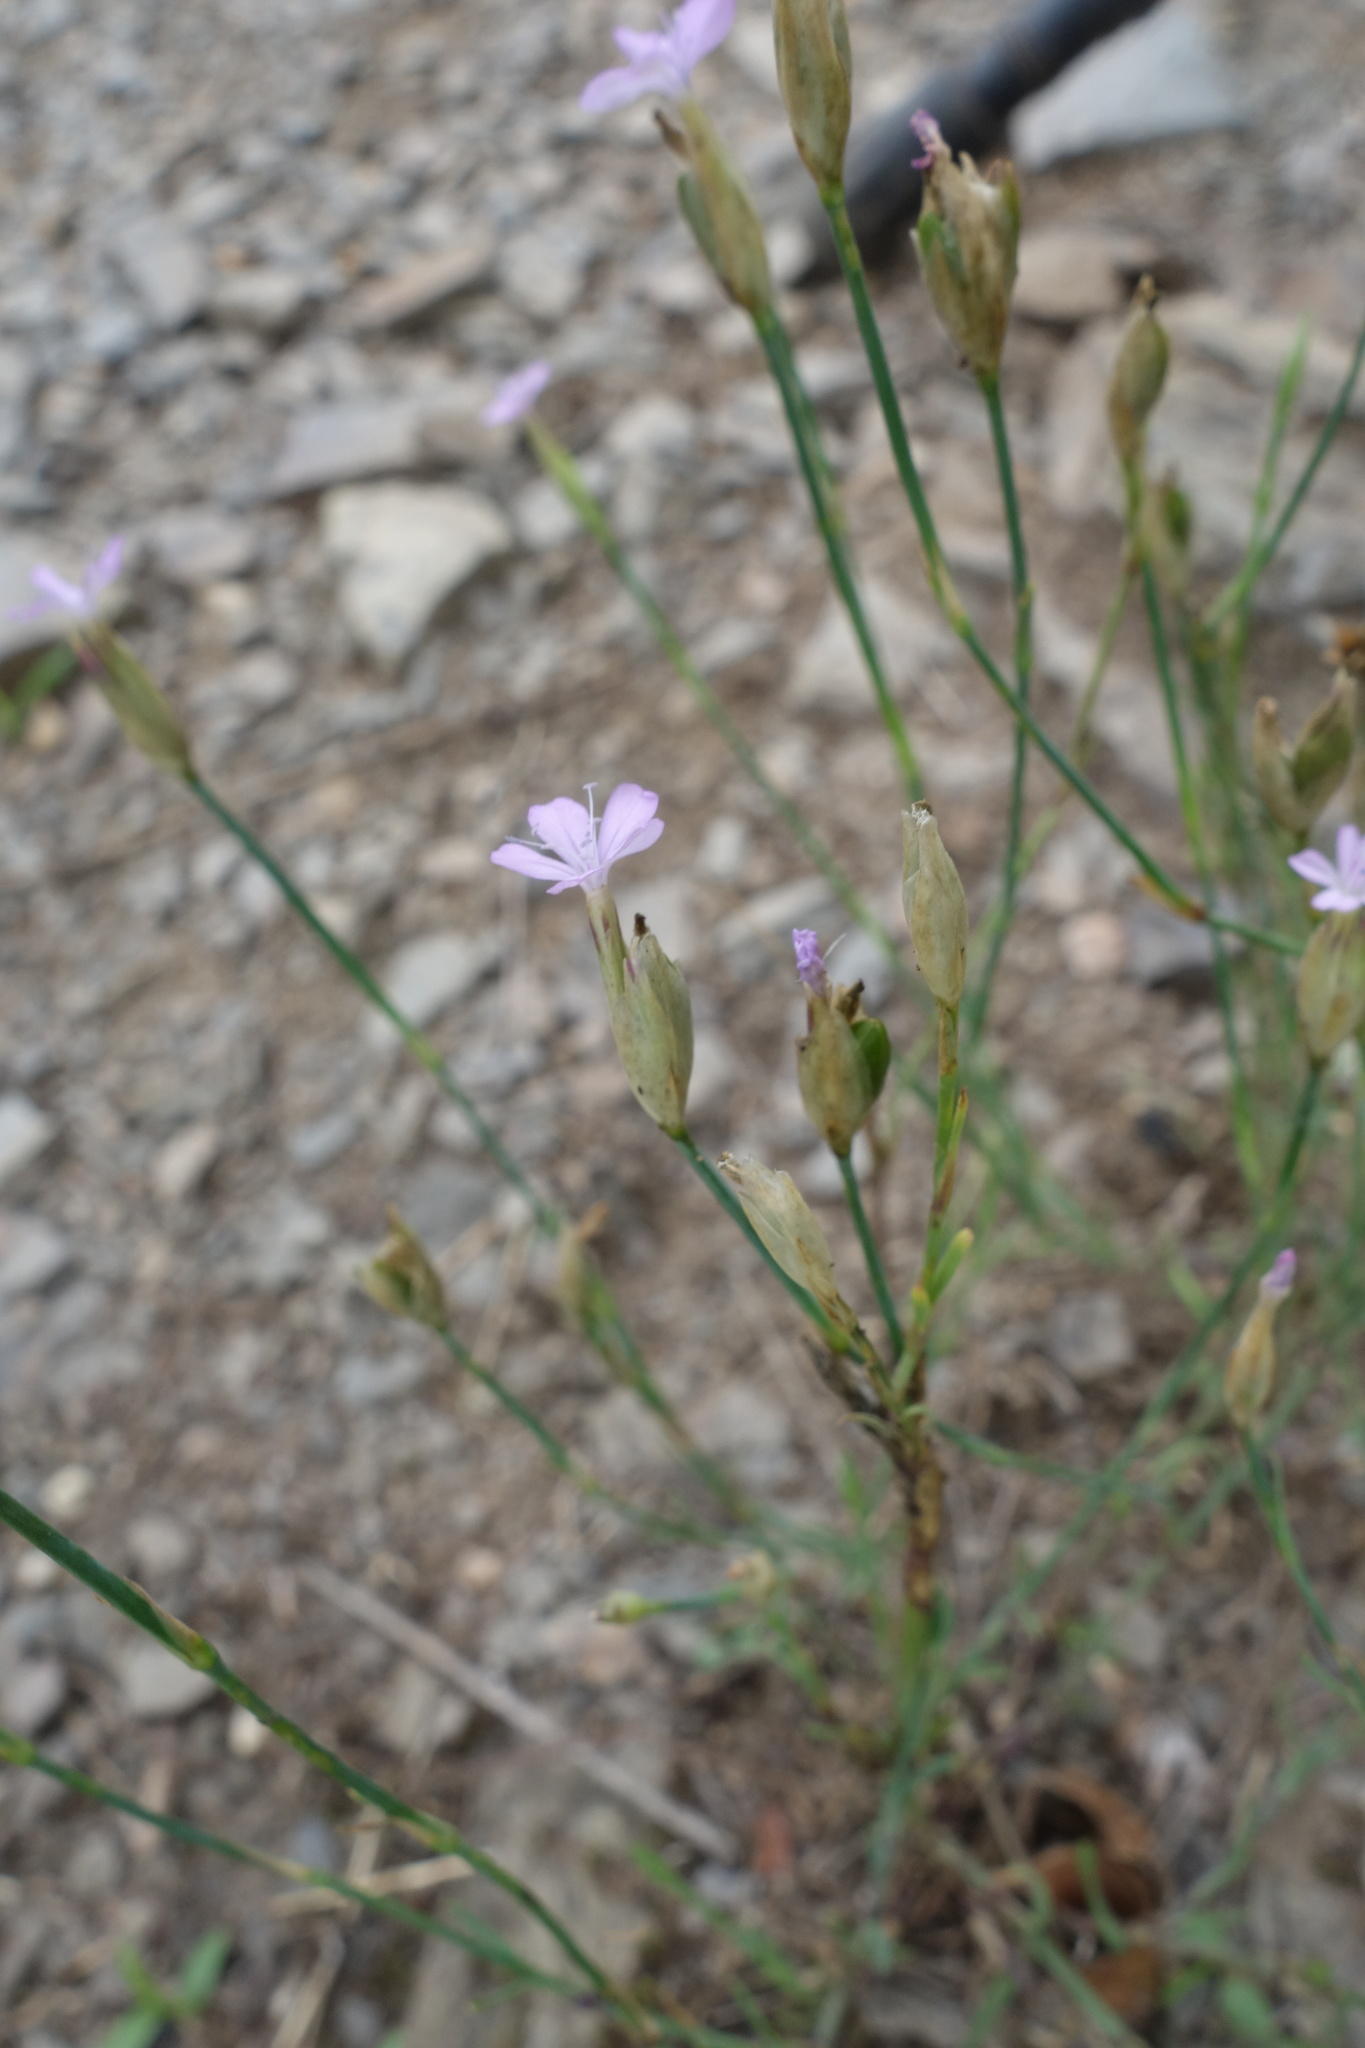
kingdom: Plantae
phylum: Tracheophyta
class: Magnoliopsida
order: Caryophyllales
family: Caryophyllaceae
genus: Petrorhagia
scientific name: Petrorhagia prolifera
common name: Proliferous pink
